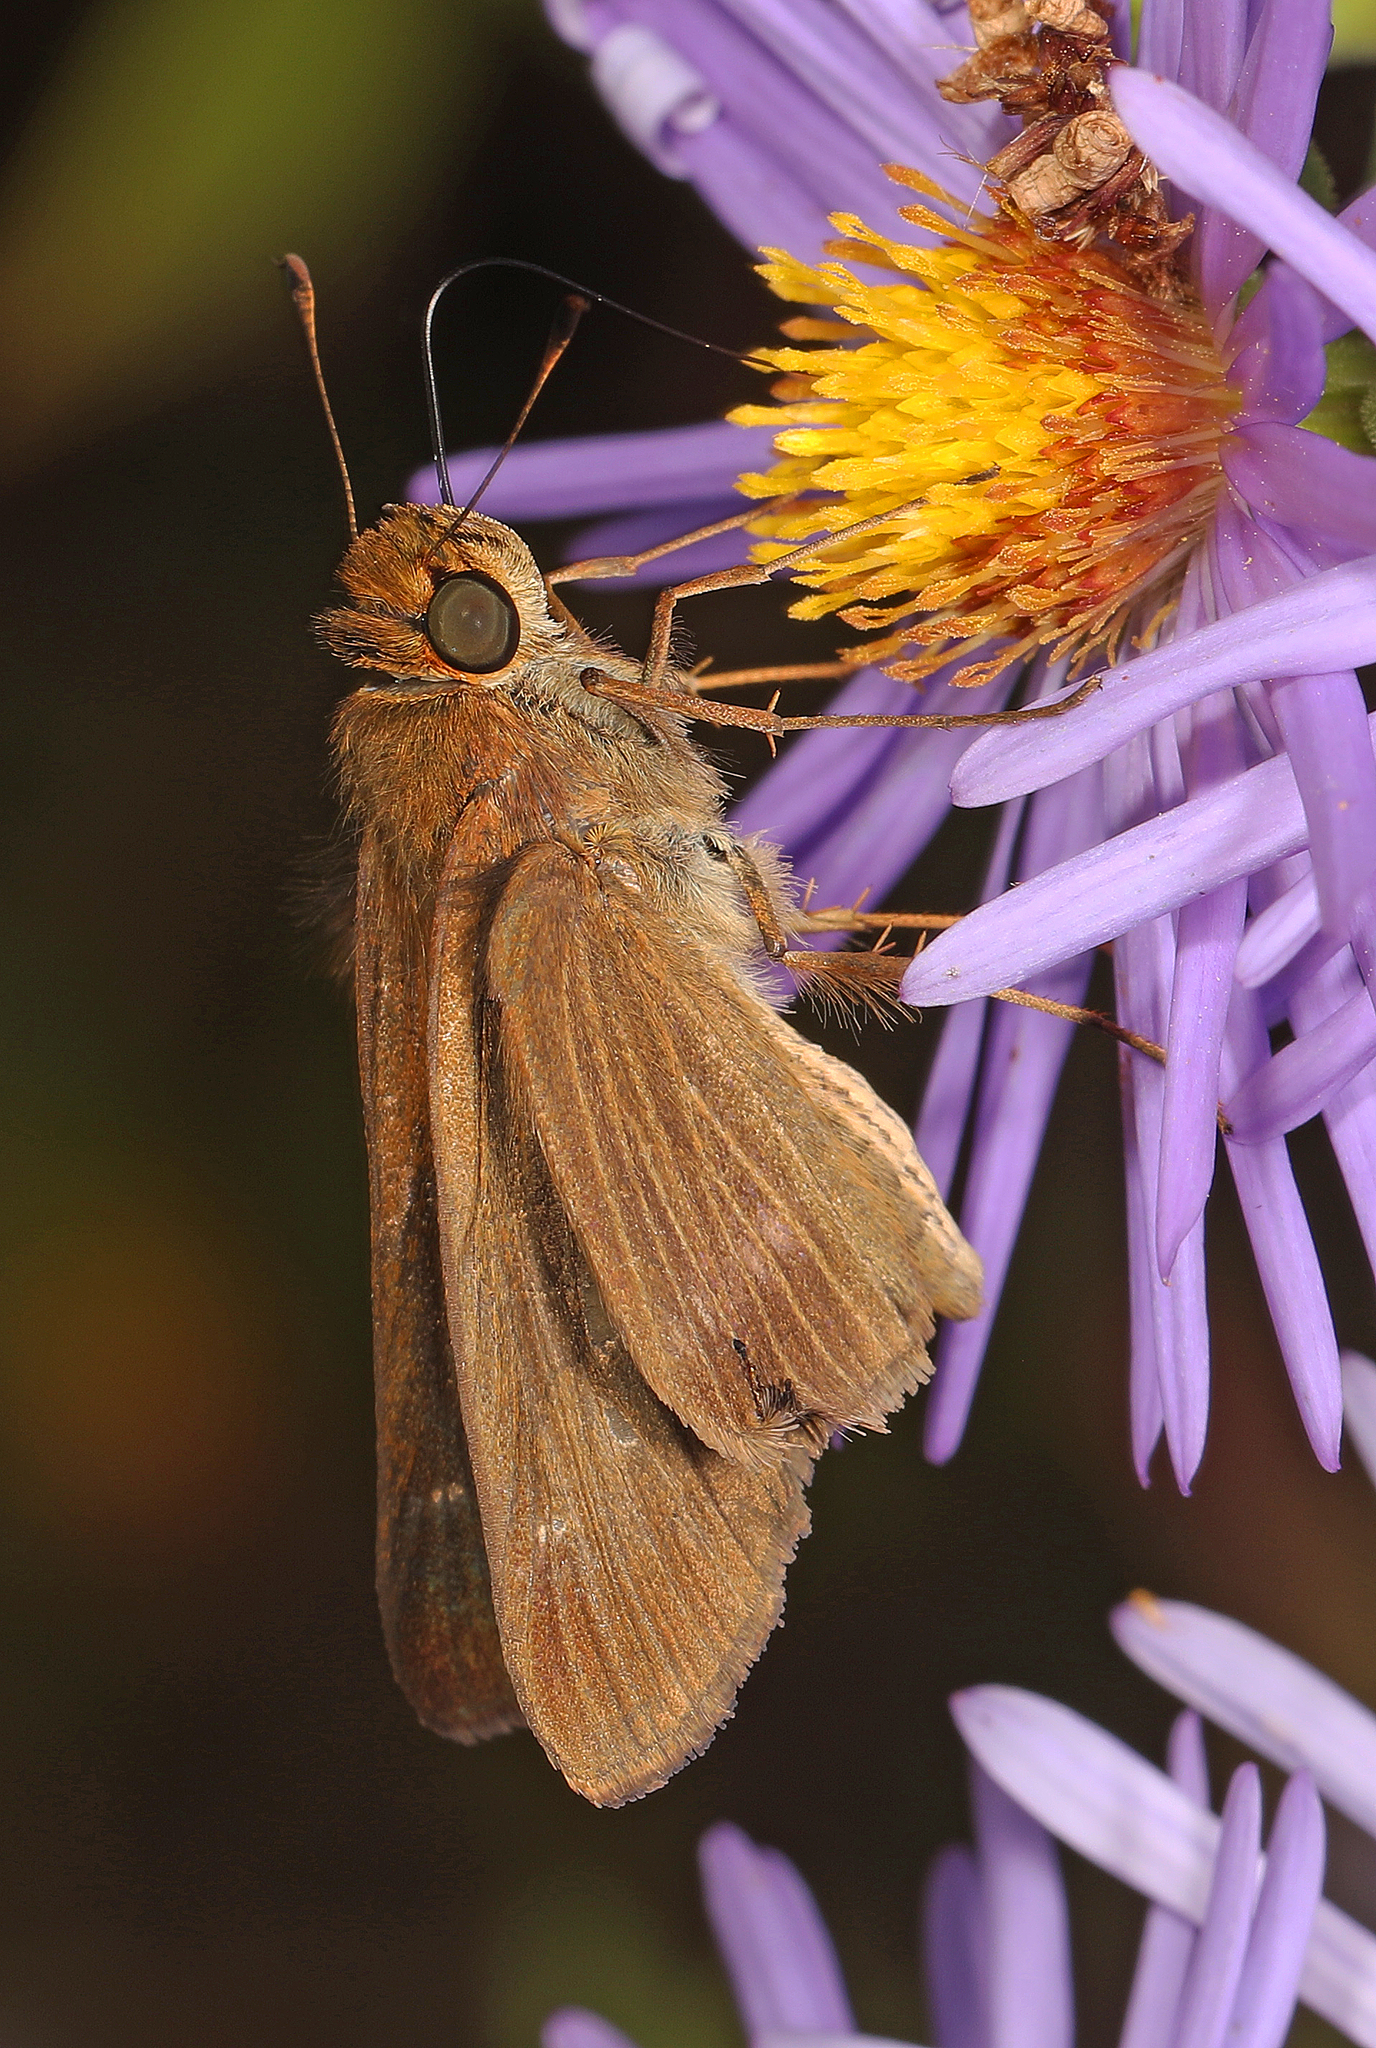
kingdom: Animalia
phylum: Arthropoda
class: Insecta
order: Lepidoptera
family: Hesperiidae
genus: Panoquina
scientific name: Panoquina ocola
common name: Ocola skipper
